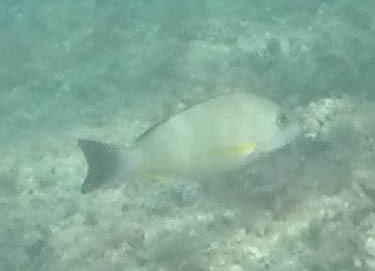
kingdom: Animalia
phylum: Chordata
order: Perciformes
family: Lutjanidae
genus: Lutjanus
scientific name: Lutjanus fulvus
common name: Blacktail snapper
